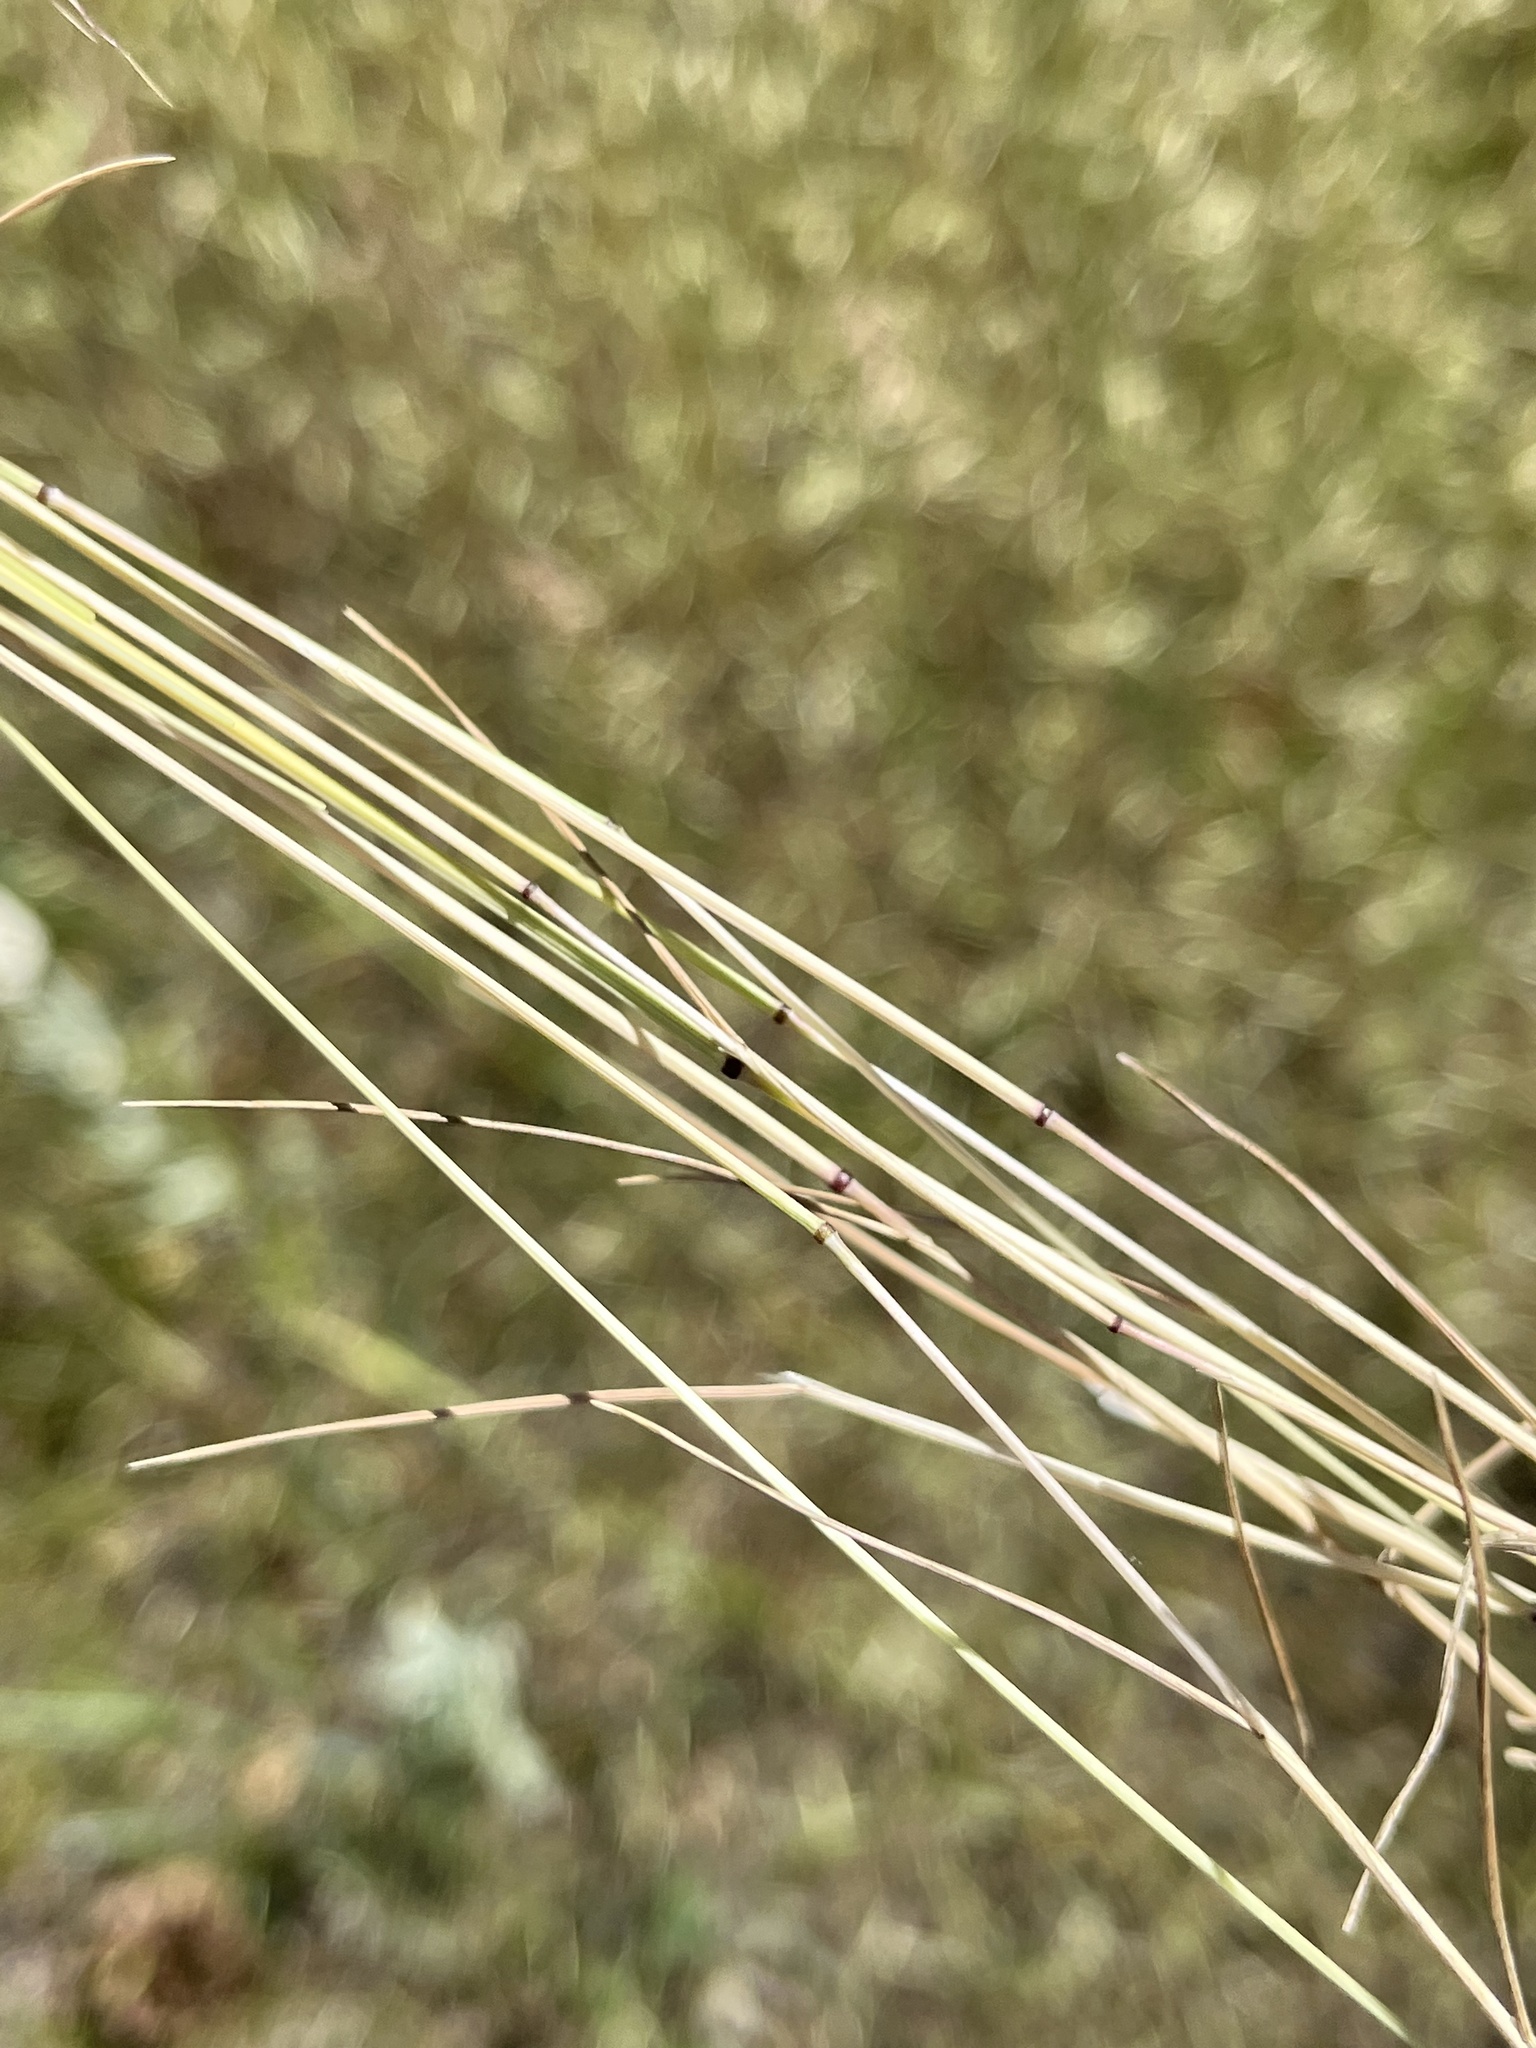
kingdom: Plantae
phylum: Tracheophyta
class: Liliopsida
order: Poales
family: Poaceae
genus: Ventenata
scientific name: Ventenata dubia
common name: North africa grass
